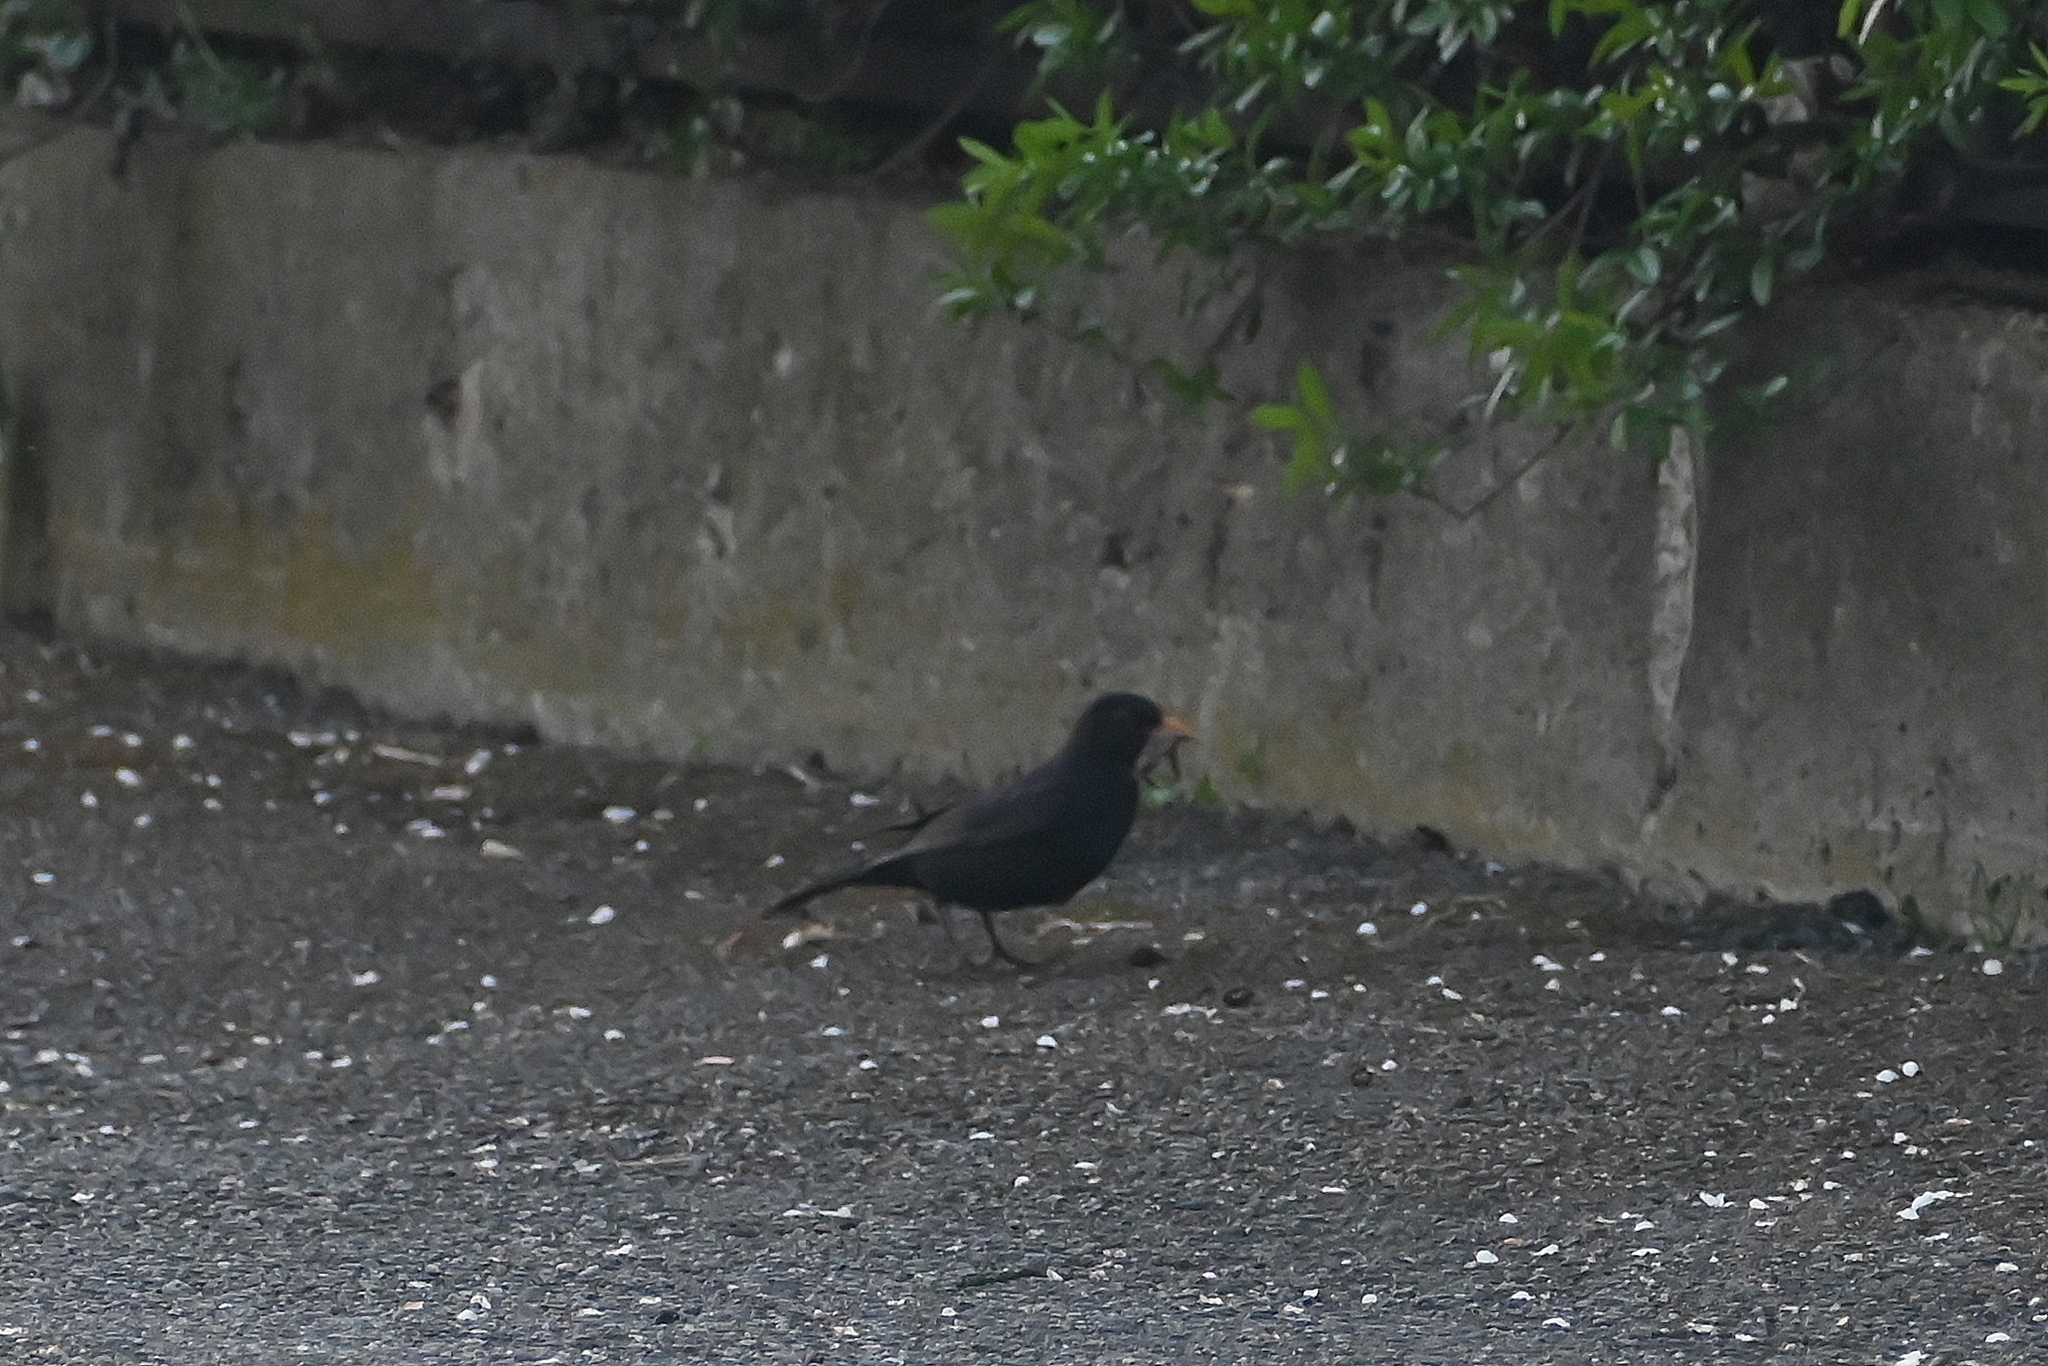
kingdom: Animalia
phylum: Chordata
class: Aves
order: Passeriformes
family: Turdidae
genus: Turdus
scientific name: Turdus merula
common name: Common blackbird
